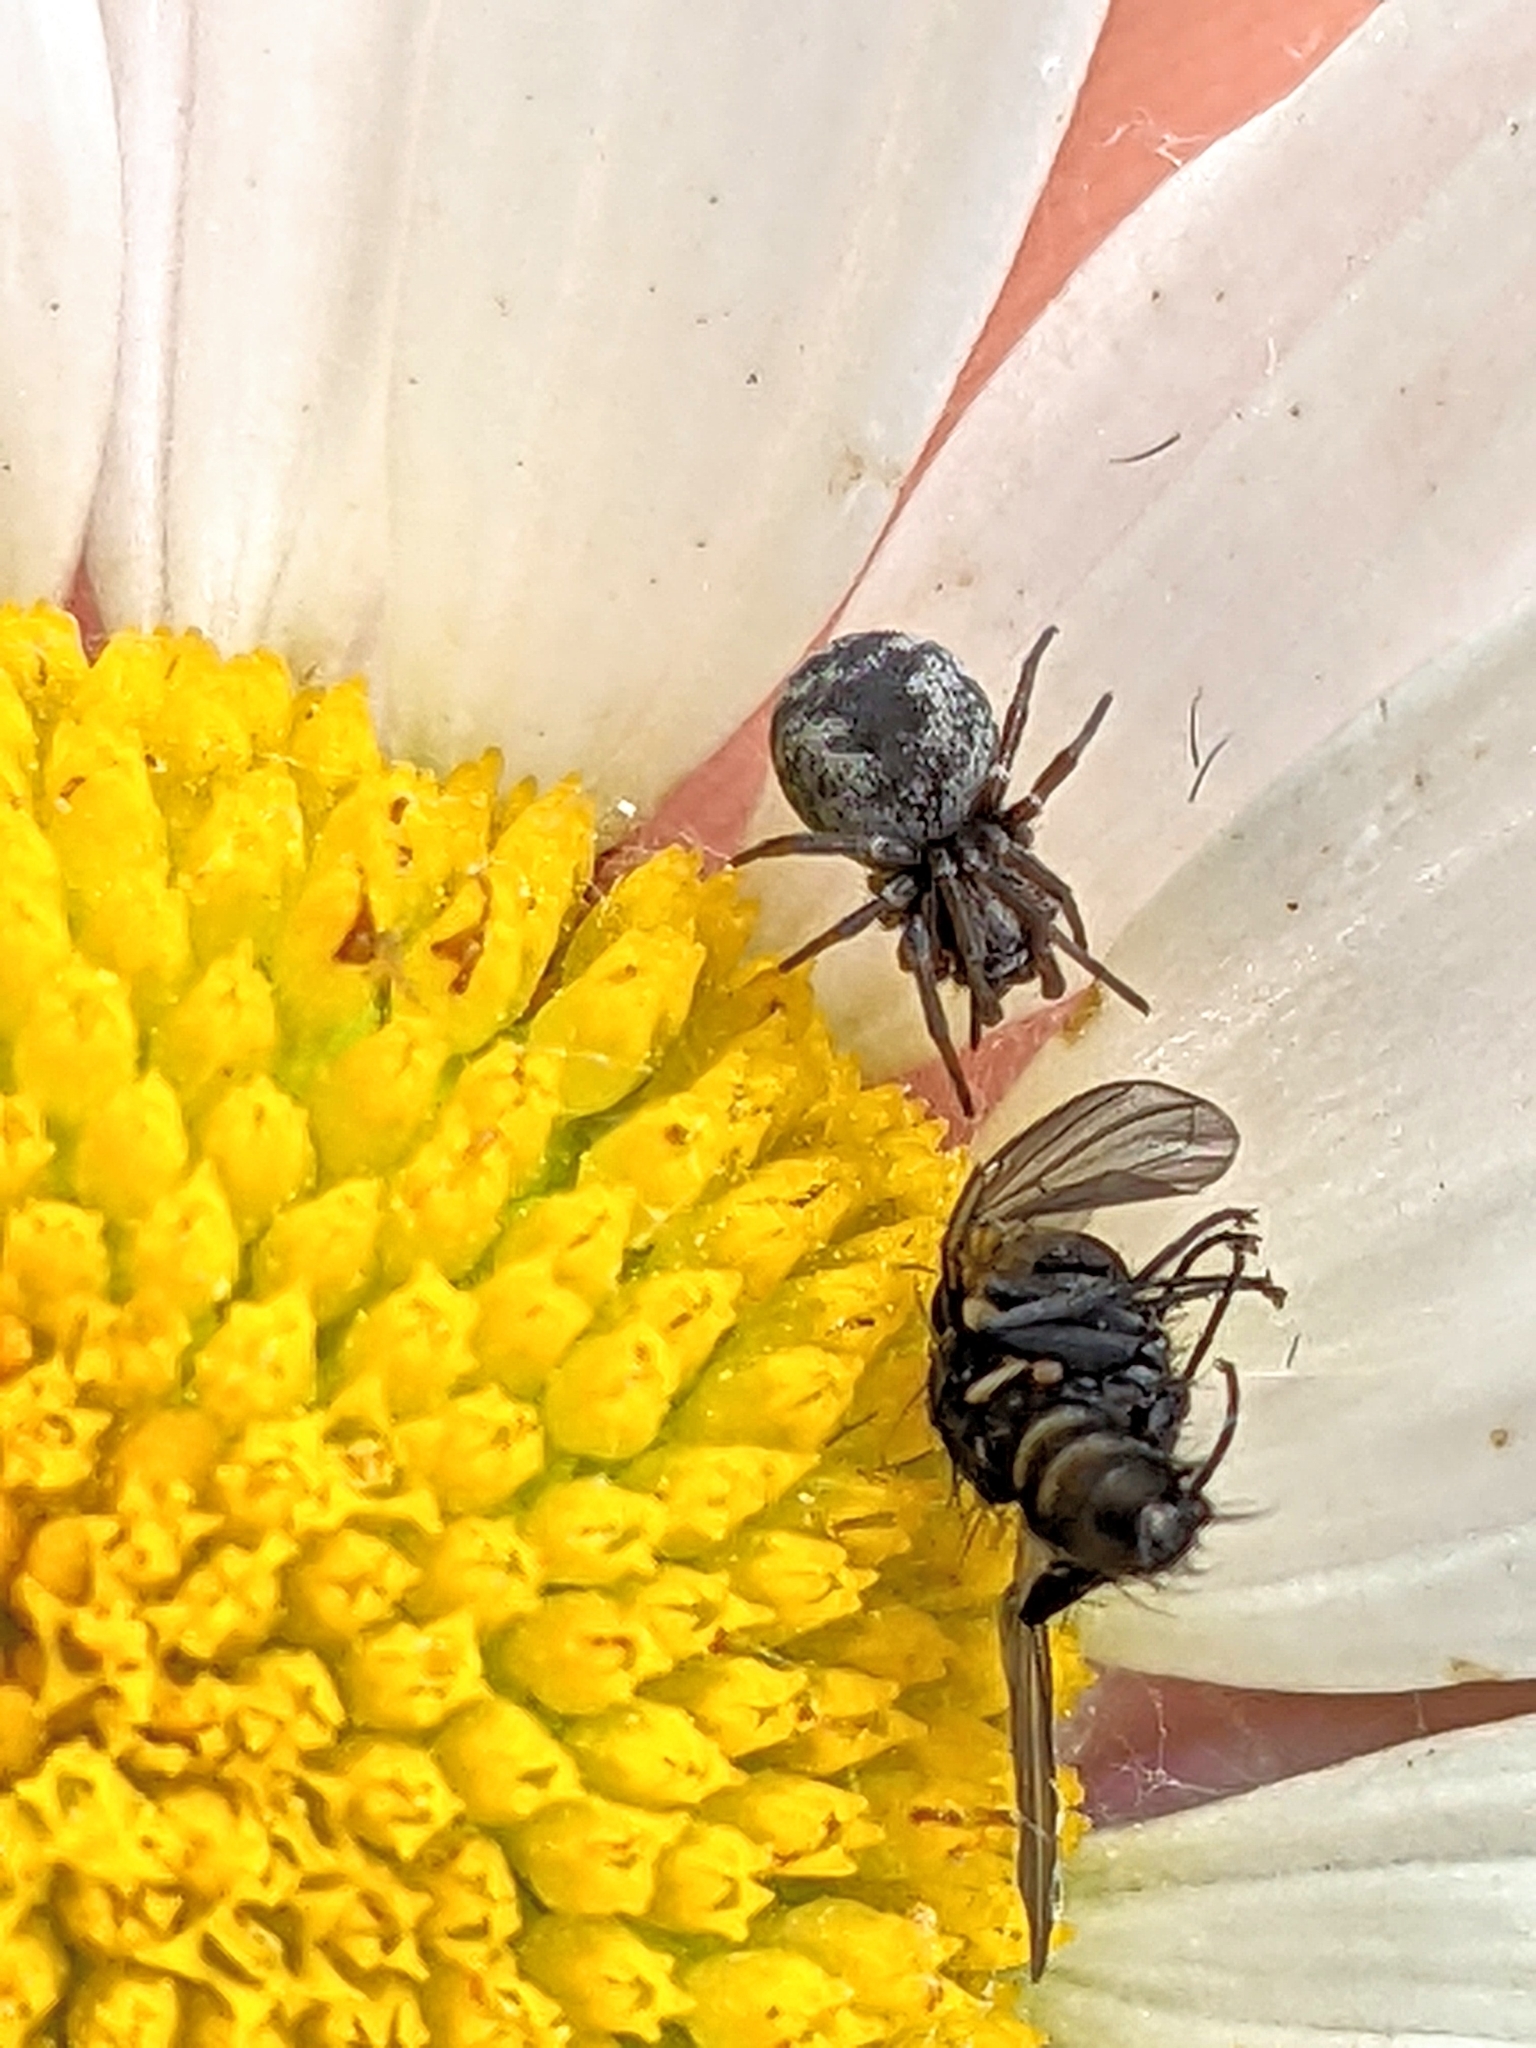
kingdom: Animalia
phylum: Arthropoda
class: Arachnida
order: Araneae
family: Dictynidae
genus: Brigittea
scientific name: Brigittea latens
